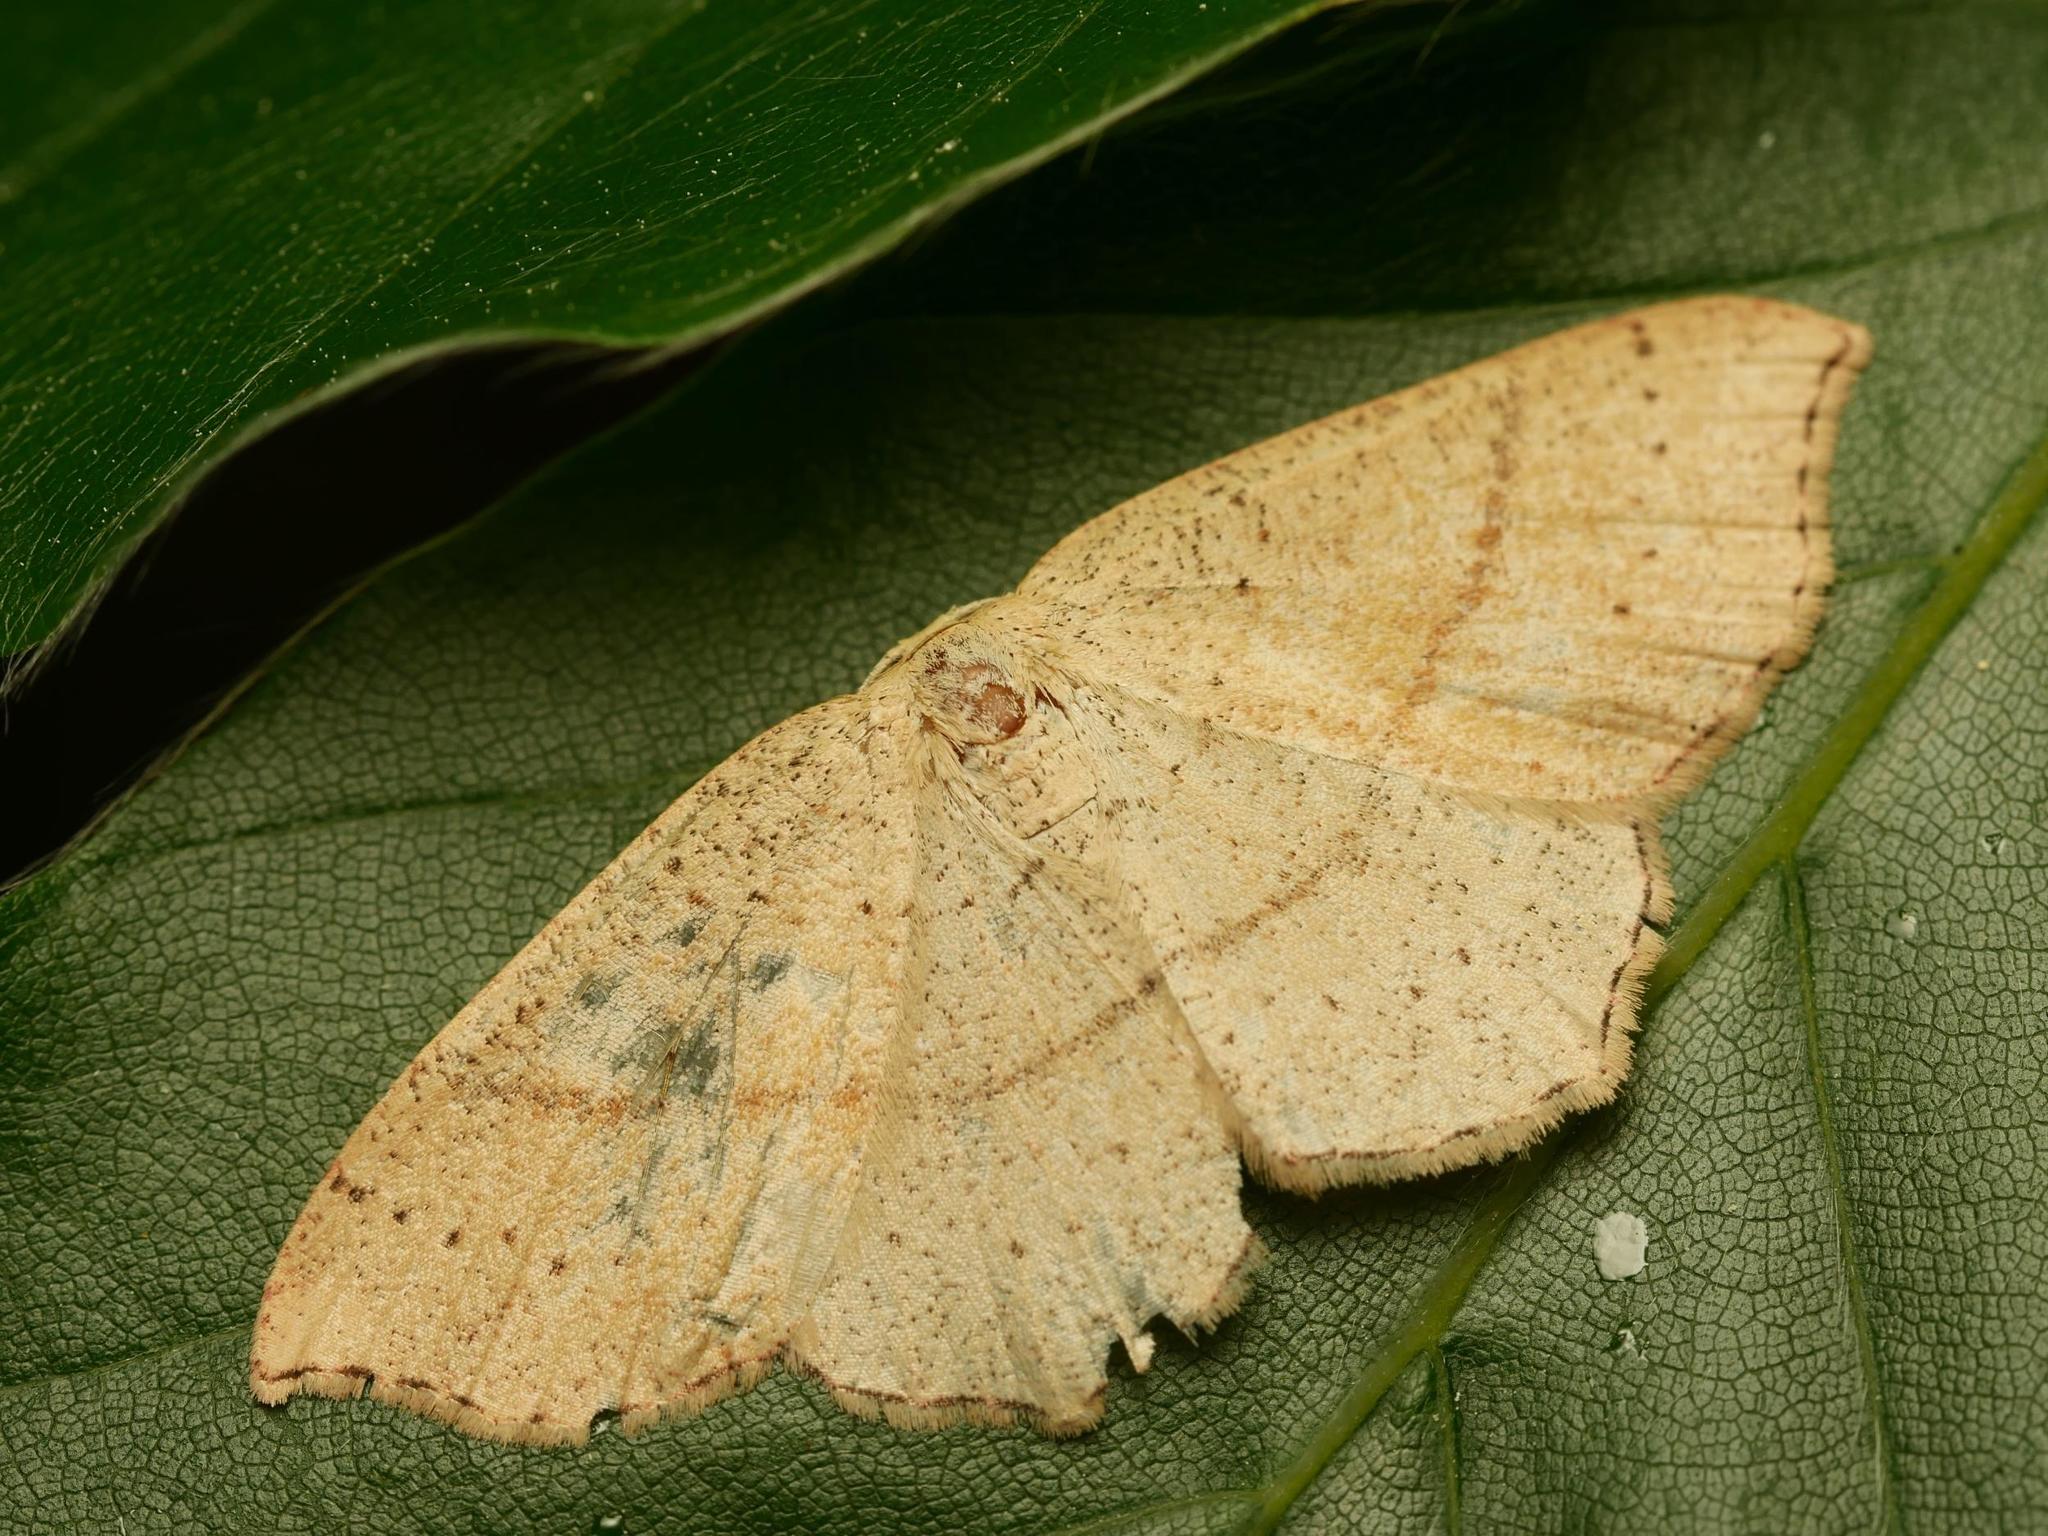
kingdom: Animalia
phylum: Arthropoda
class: Insecta
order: Lepidoptera
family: Geometridae
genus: Cyclophora
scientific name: Cyclophora punctaria
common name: Maiden's blush
